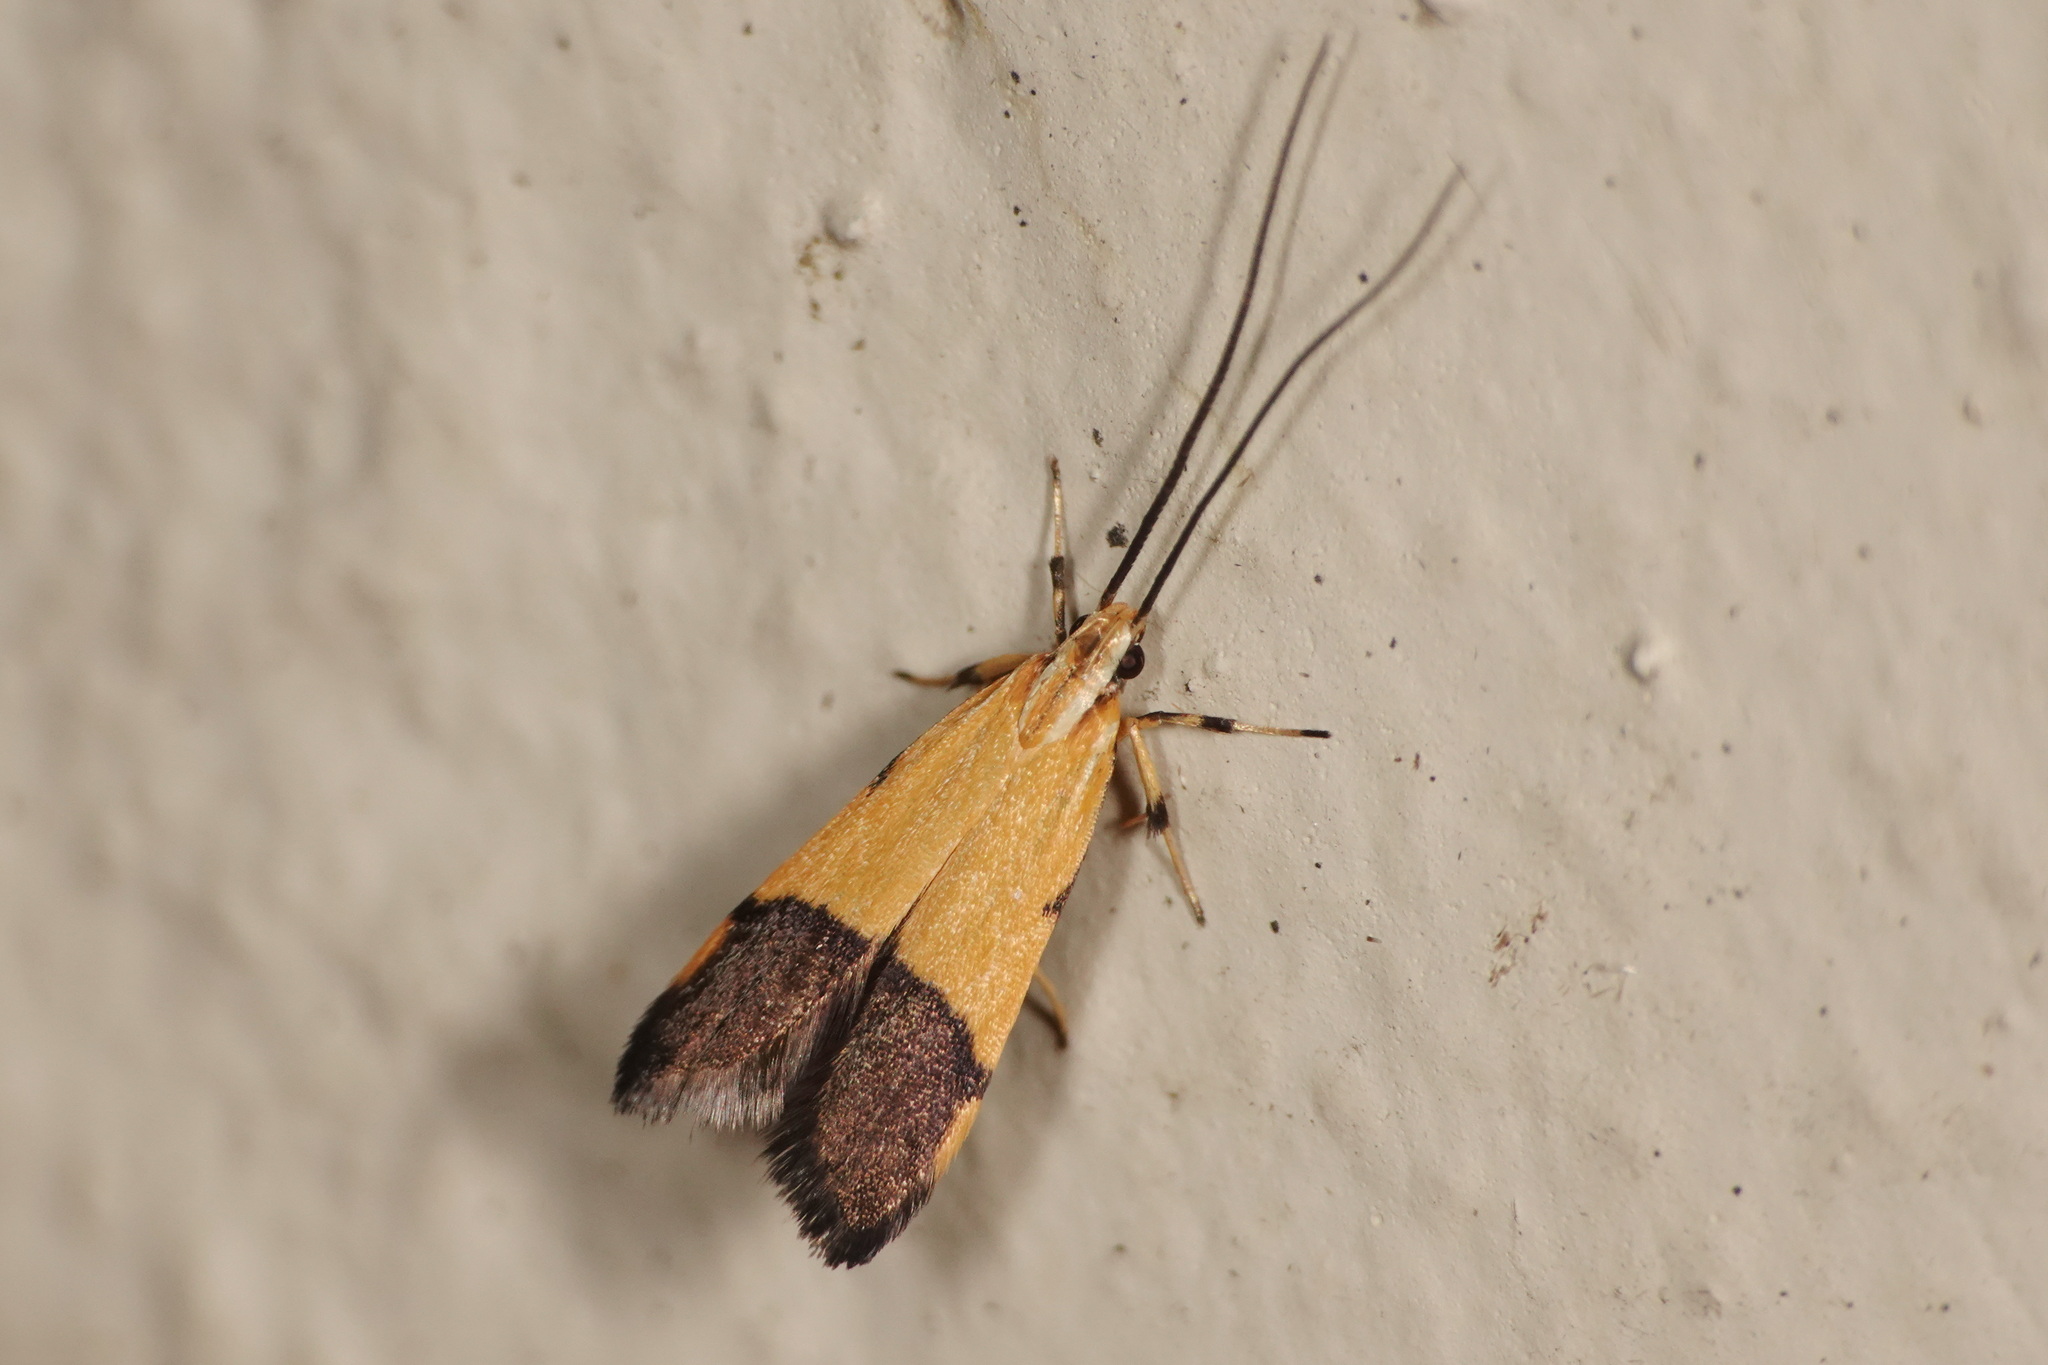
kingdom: Animalia
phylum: Arthropoda
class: Insecta
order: Lepidoptera
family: Lecithoceridae
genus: Crocanthes
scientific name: Crocanthes micradelpha
